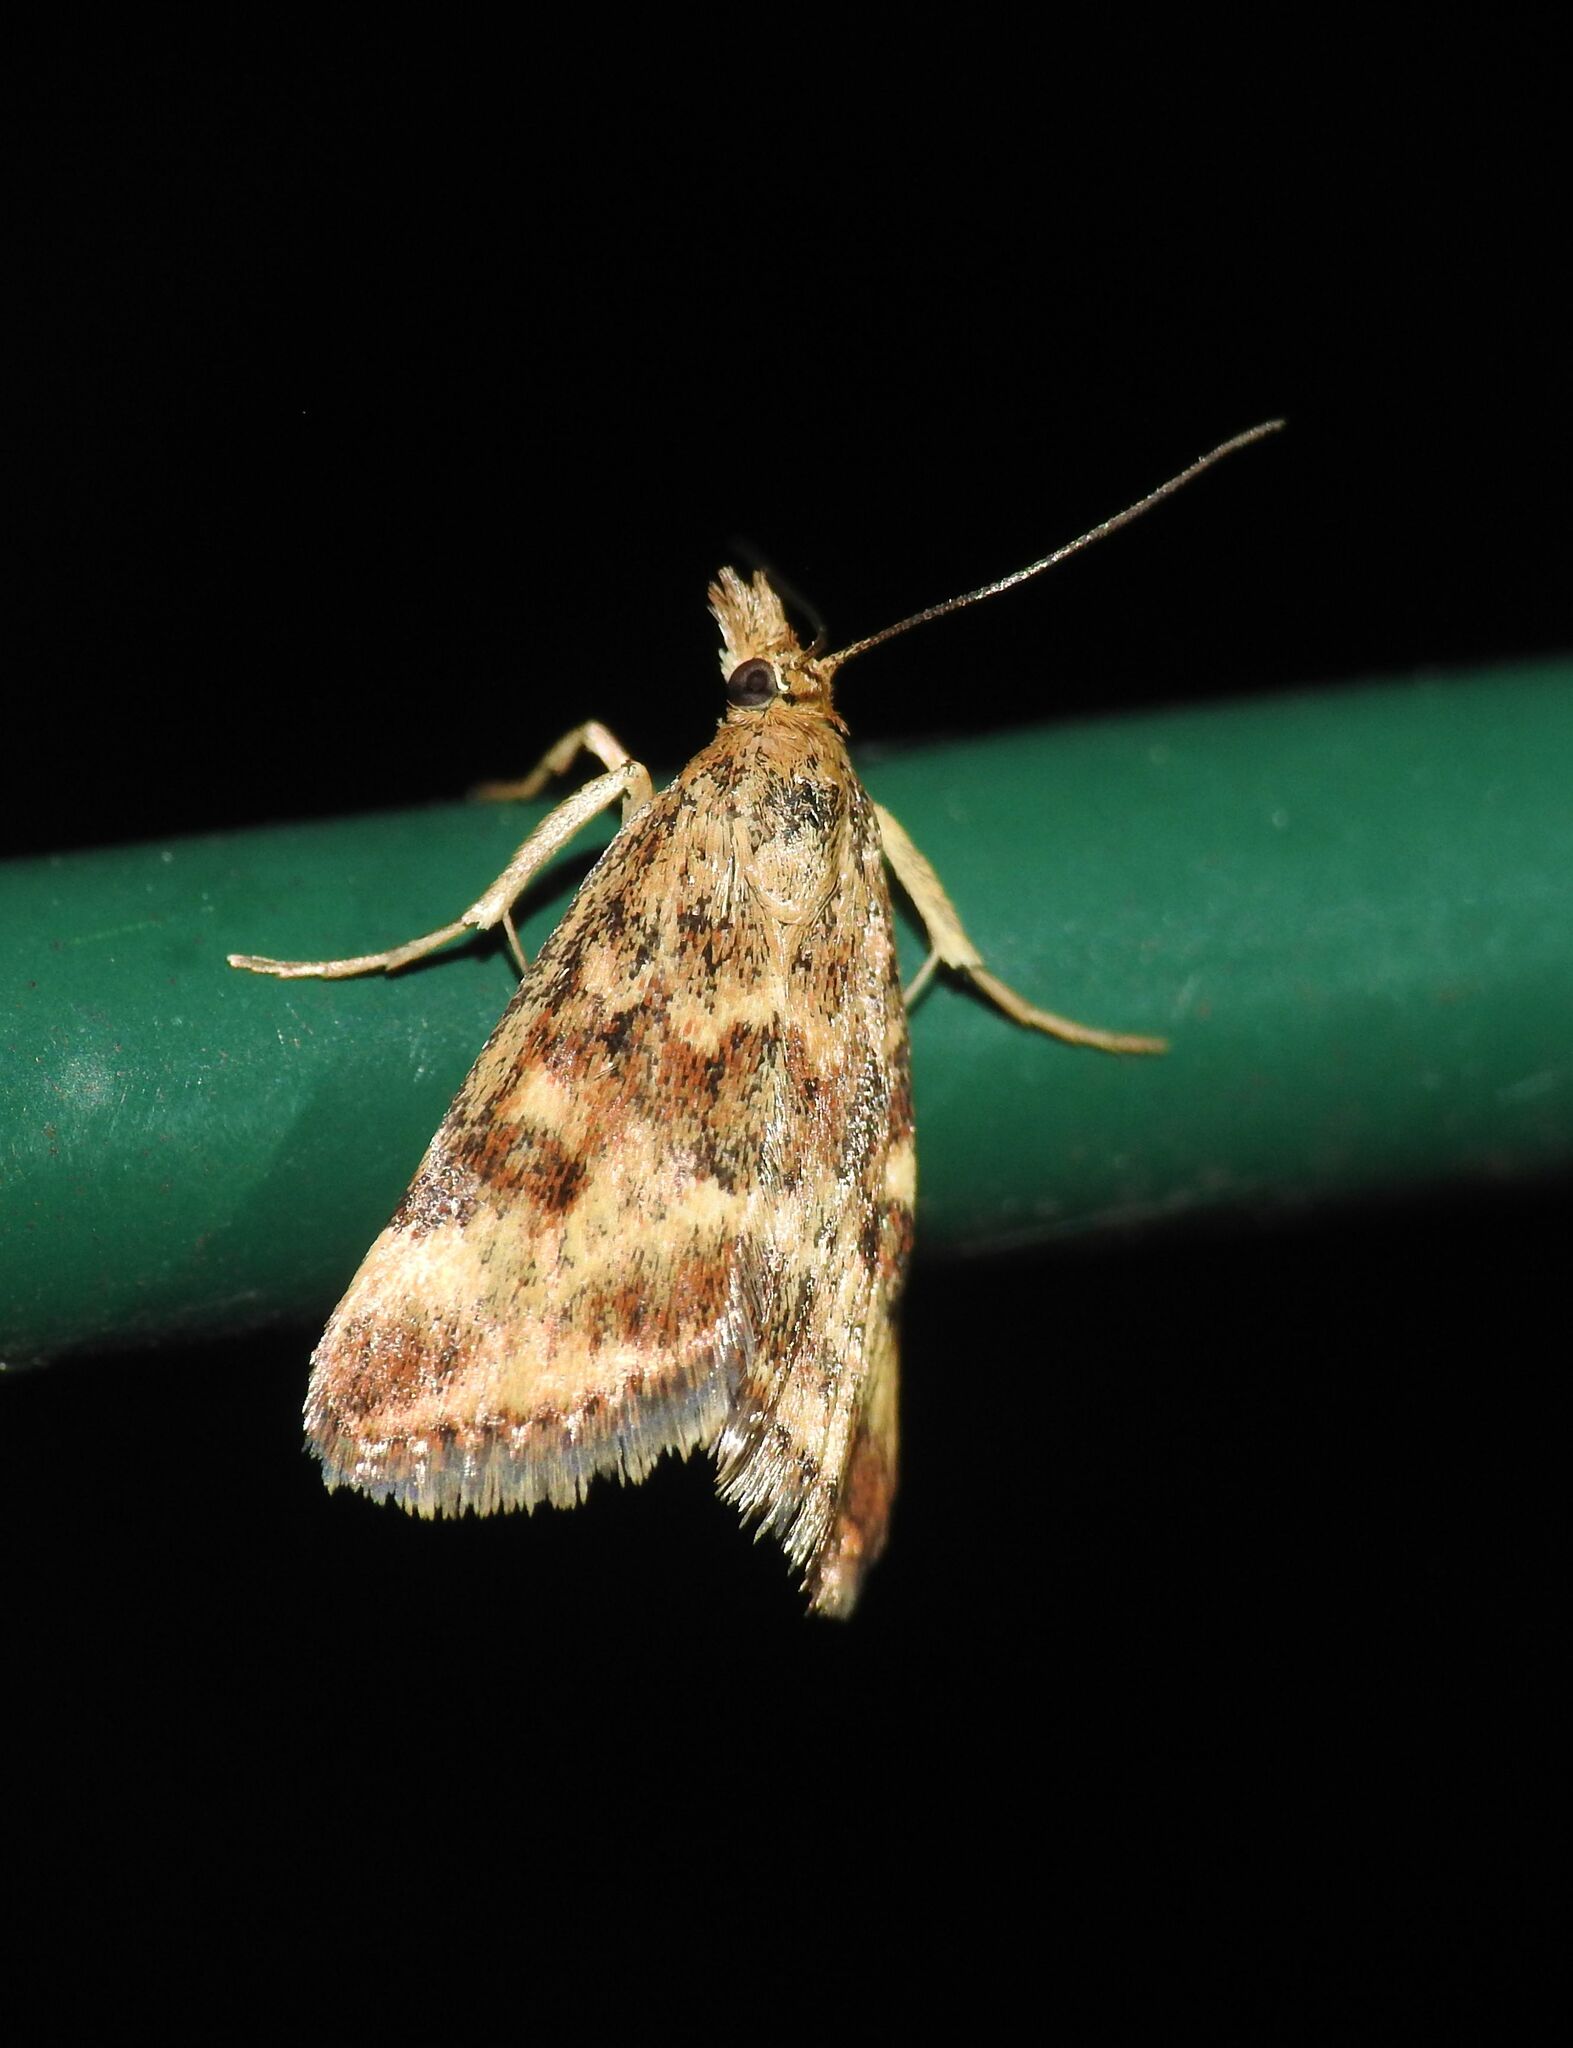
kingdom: Animalia
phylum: Arthropoda
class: Insecta
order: Lepidoptera
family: Crambidae
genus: Pyrausta
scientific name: Pyrausta despicata
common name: Straw-barred pearl
